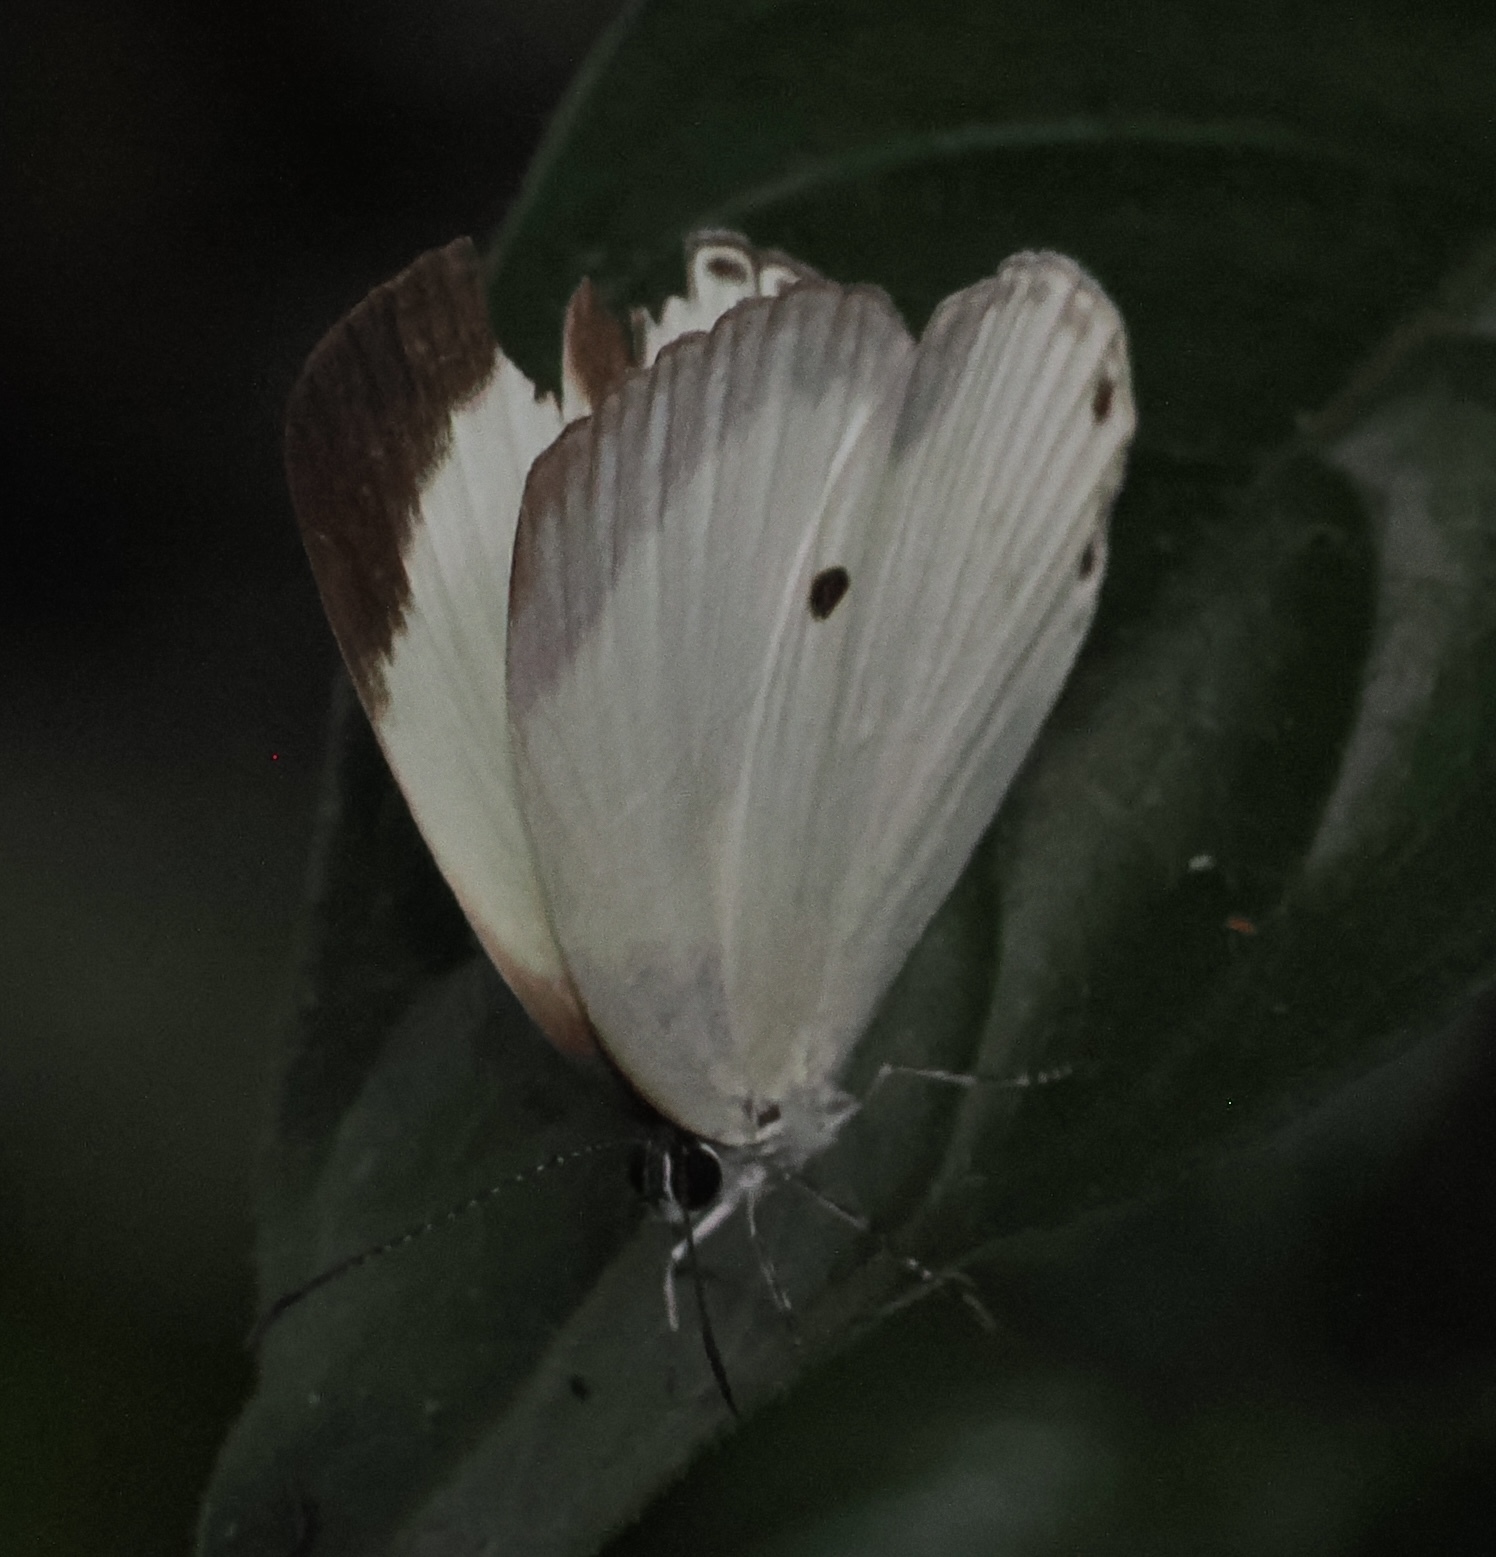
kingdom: Animalia
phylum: Arthropoda
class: Insecta
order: Lepidoptera
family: Lycaenidae
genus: Oboronia
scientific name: Oboronia
